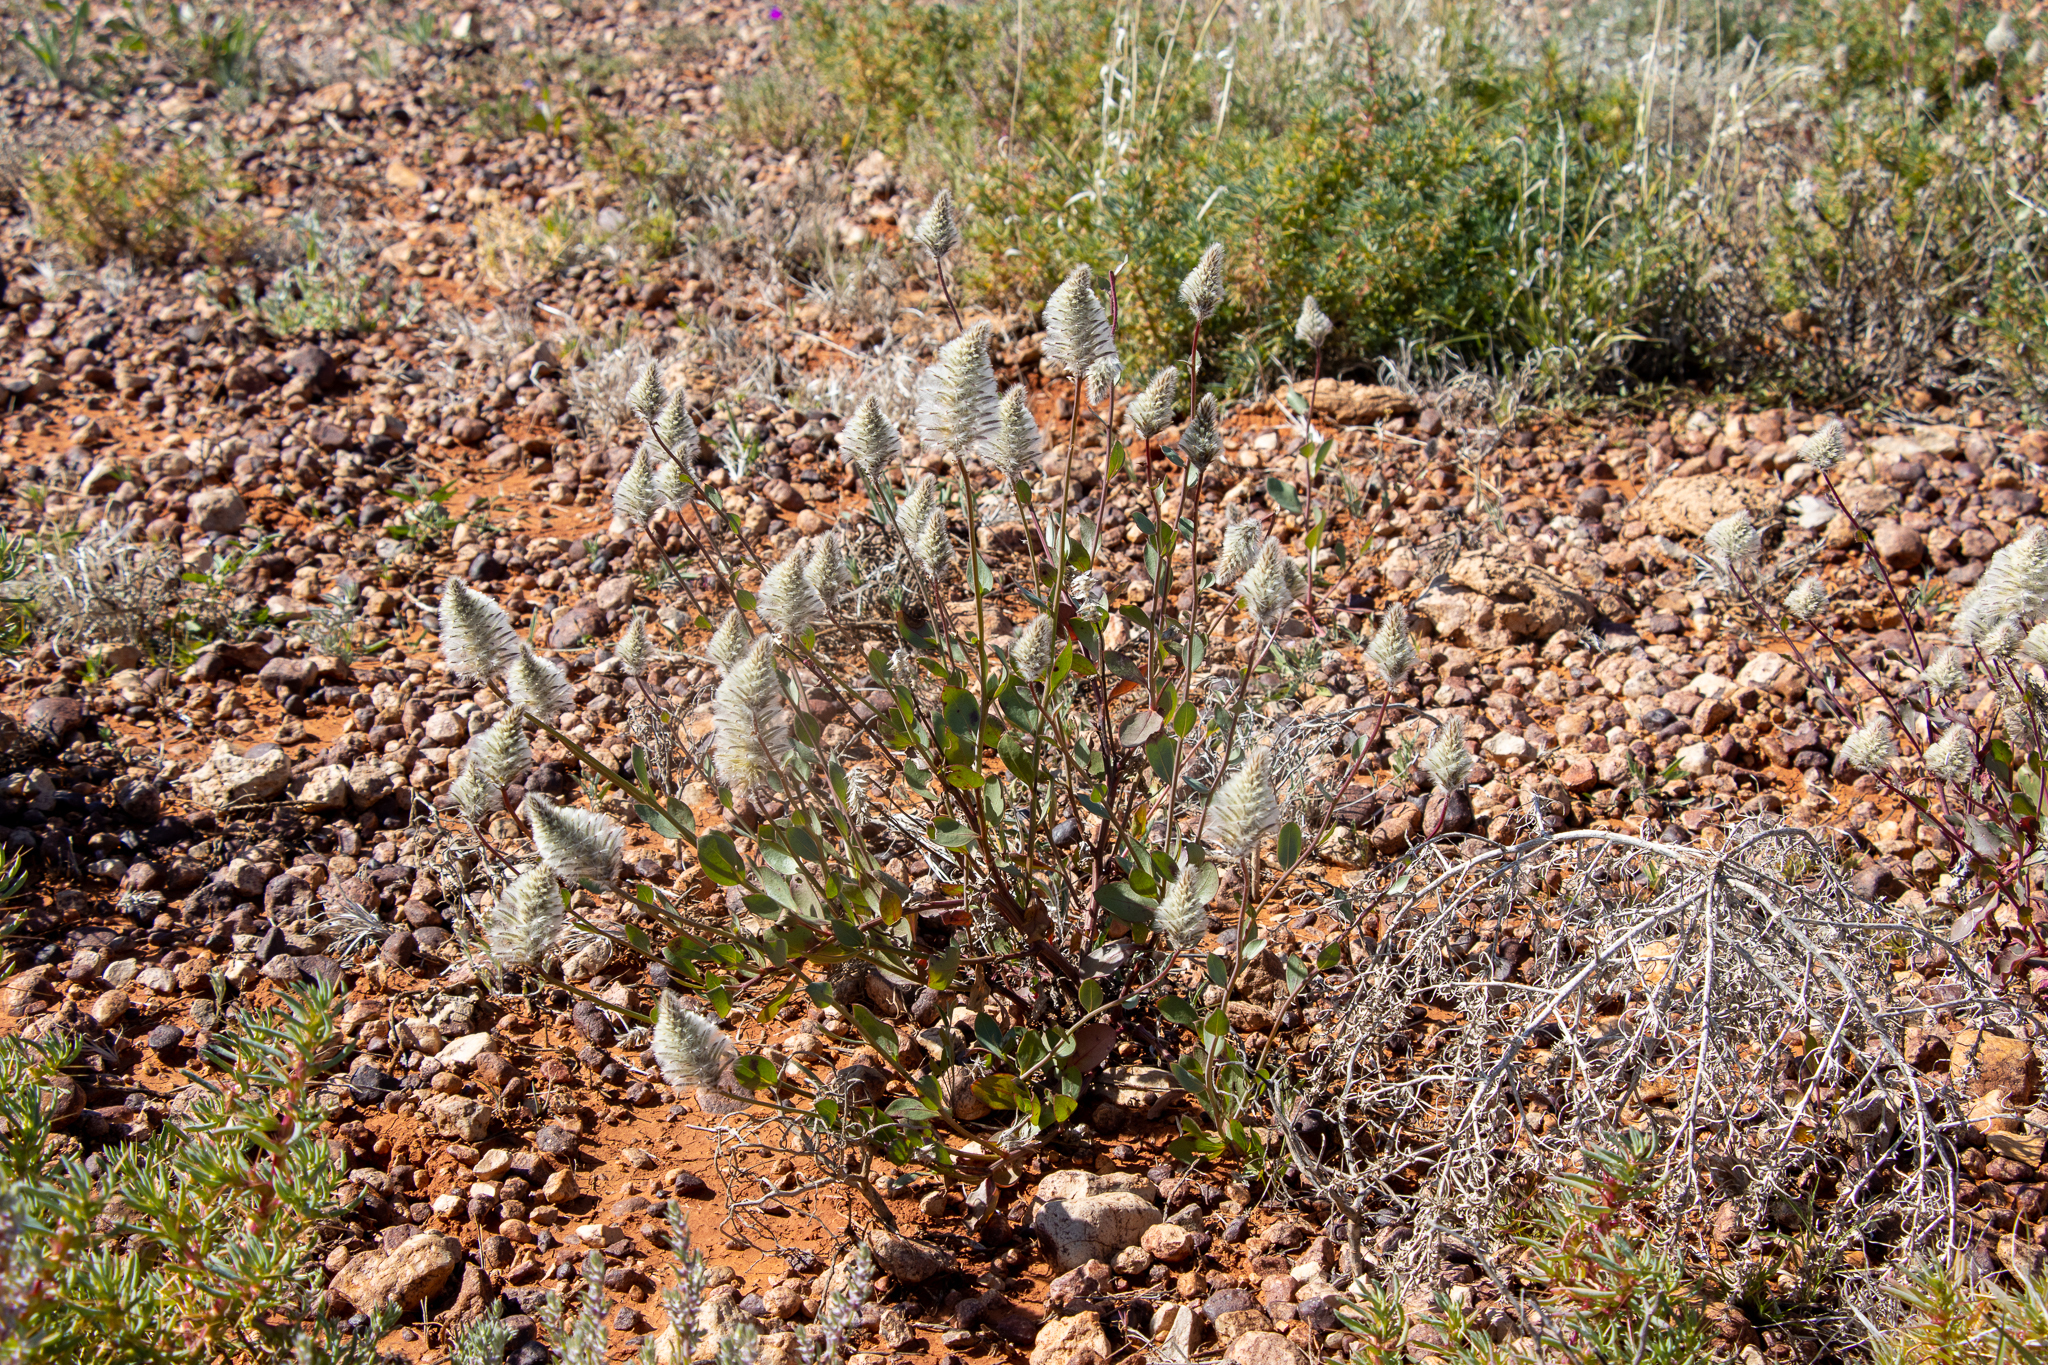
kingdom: Plantae
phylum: Tracheophyta
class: Magnoliopsida
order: Caryophyllales
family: Amaranthaceae
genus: Ptilotus
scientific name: Ptilotus nobilis
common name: Regal-foxtail
